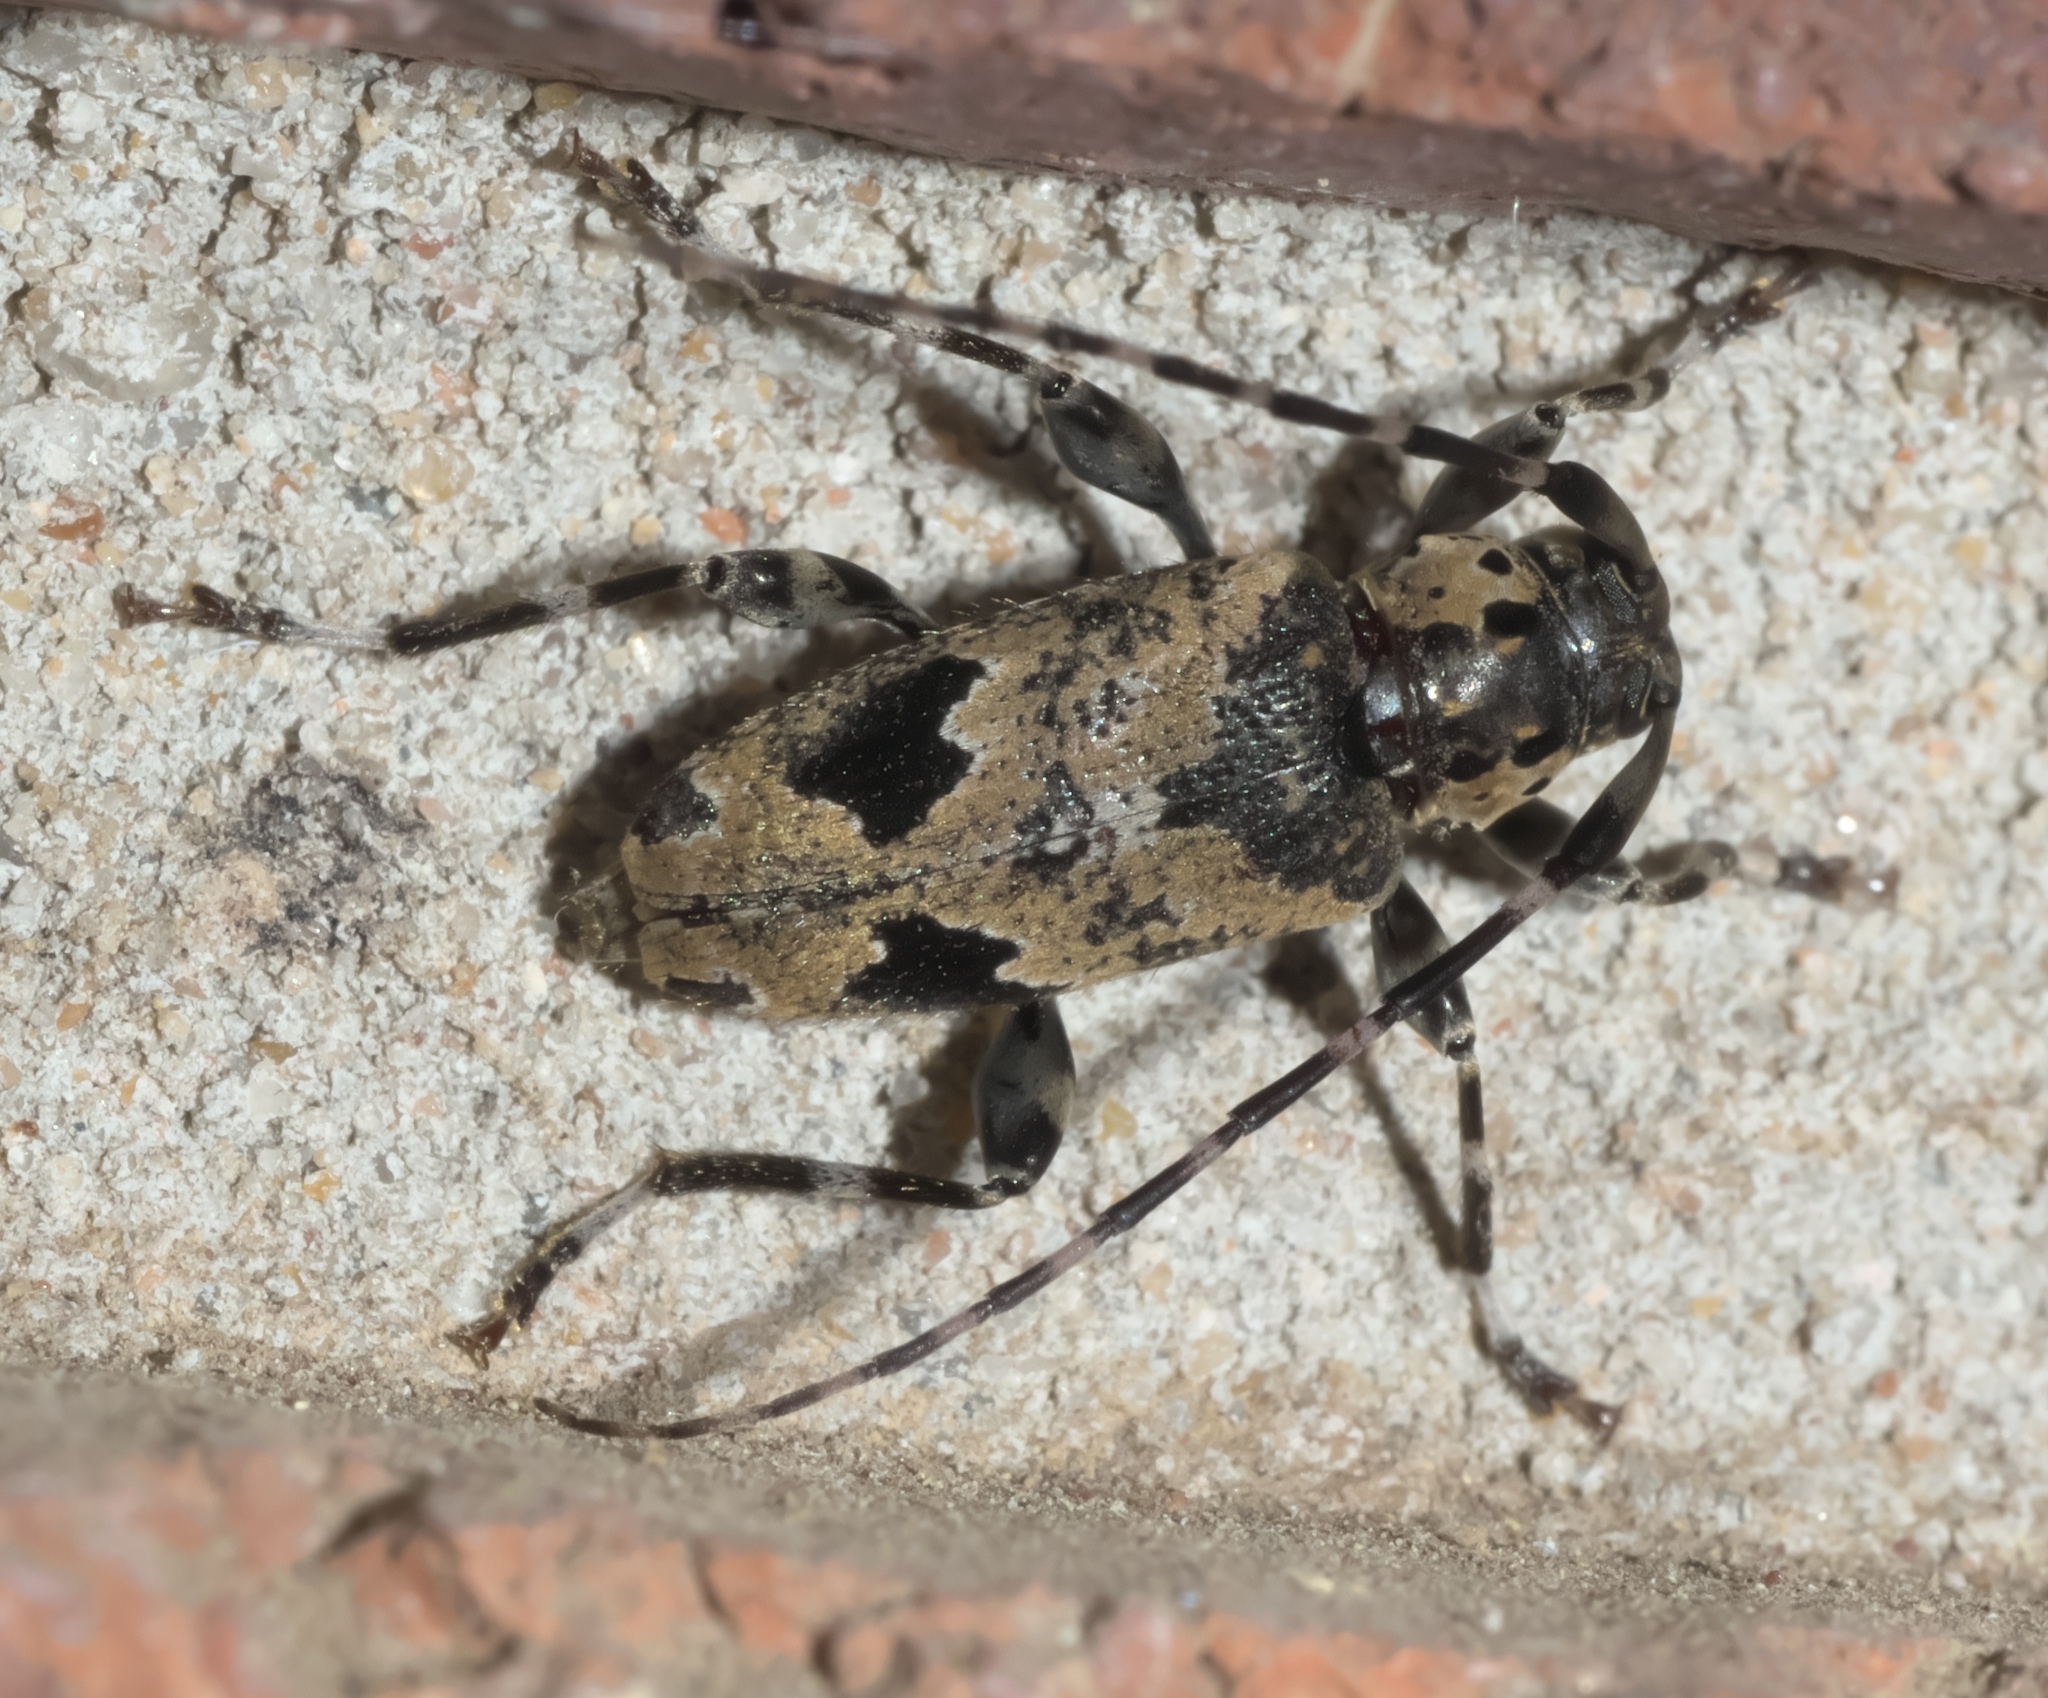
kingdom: Animalia
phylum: Arthropoda
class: Insecta
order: Coleoptera
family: Cerambycidae
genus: Graphisurus
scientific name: Graphisurus triangulifer
